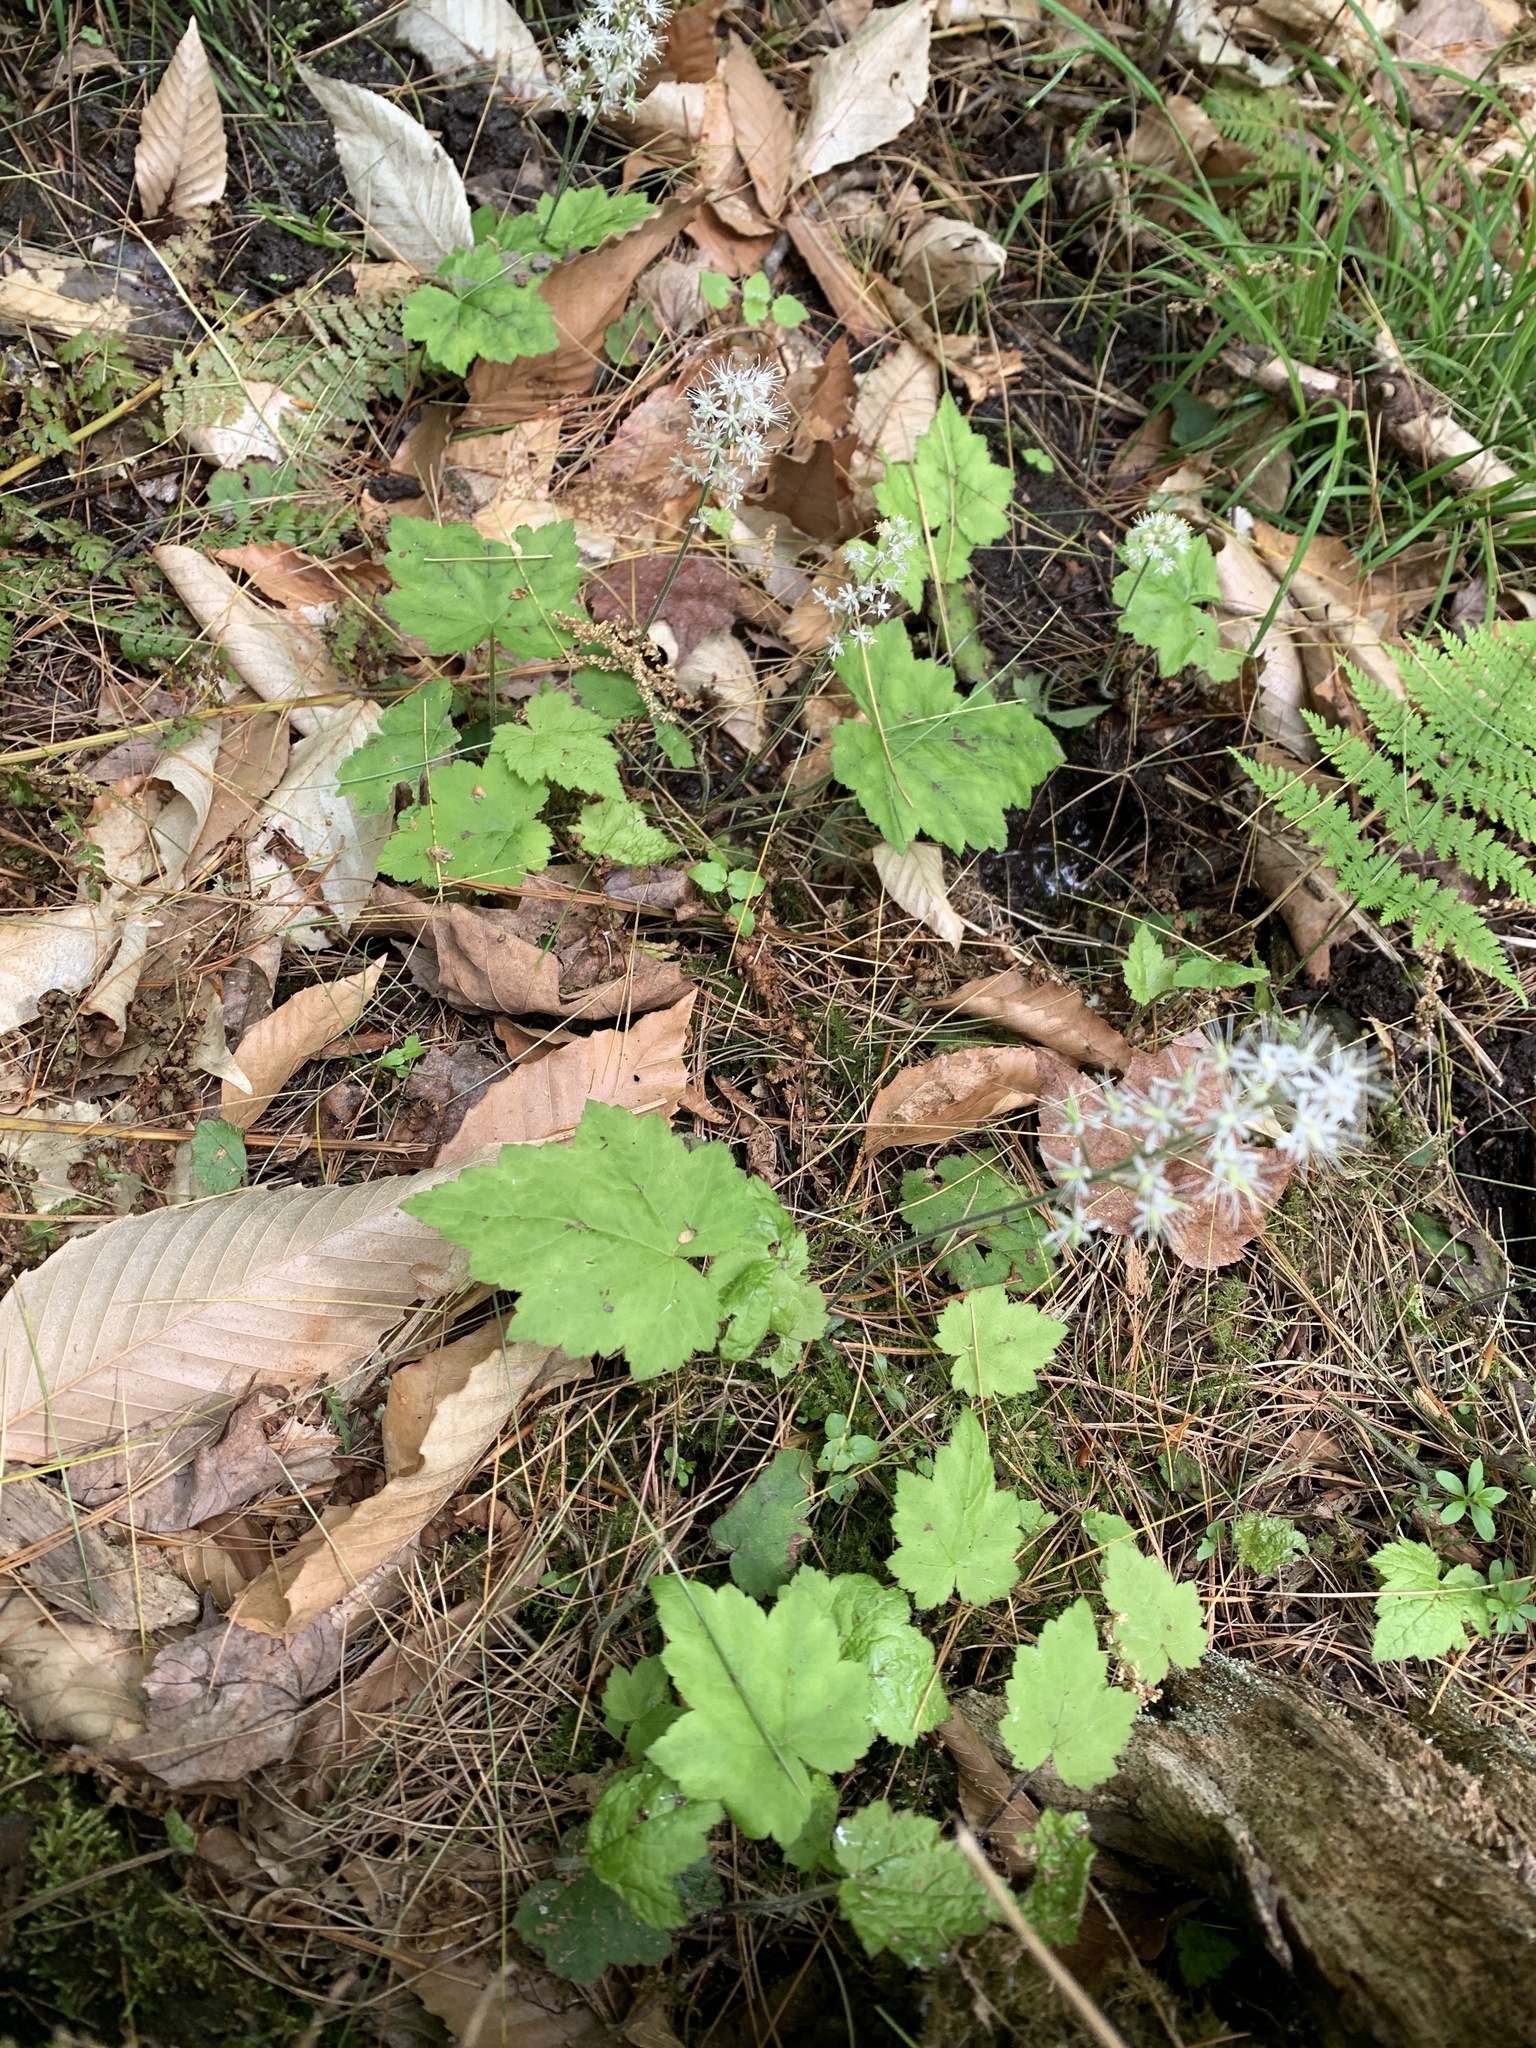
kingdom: Plantae
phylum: Tracheophyta
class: Magnoliopsida
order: Saxifragales
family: Saxifragaceae
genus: Tiarella
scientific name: Tiarella stolonifera
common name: Stoloniferous foamflower
